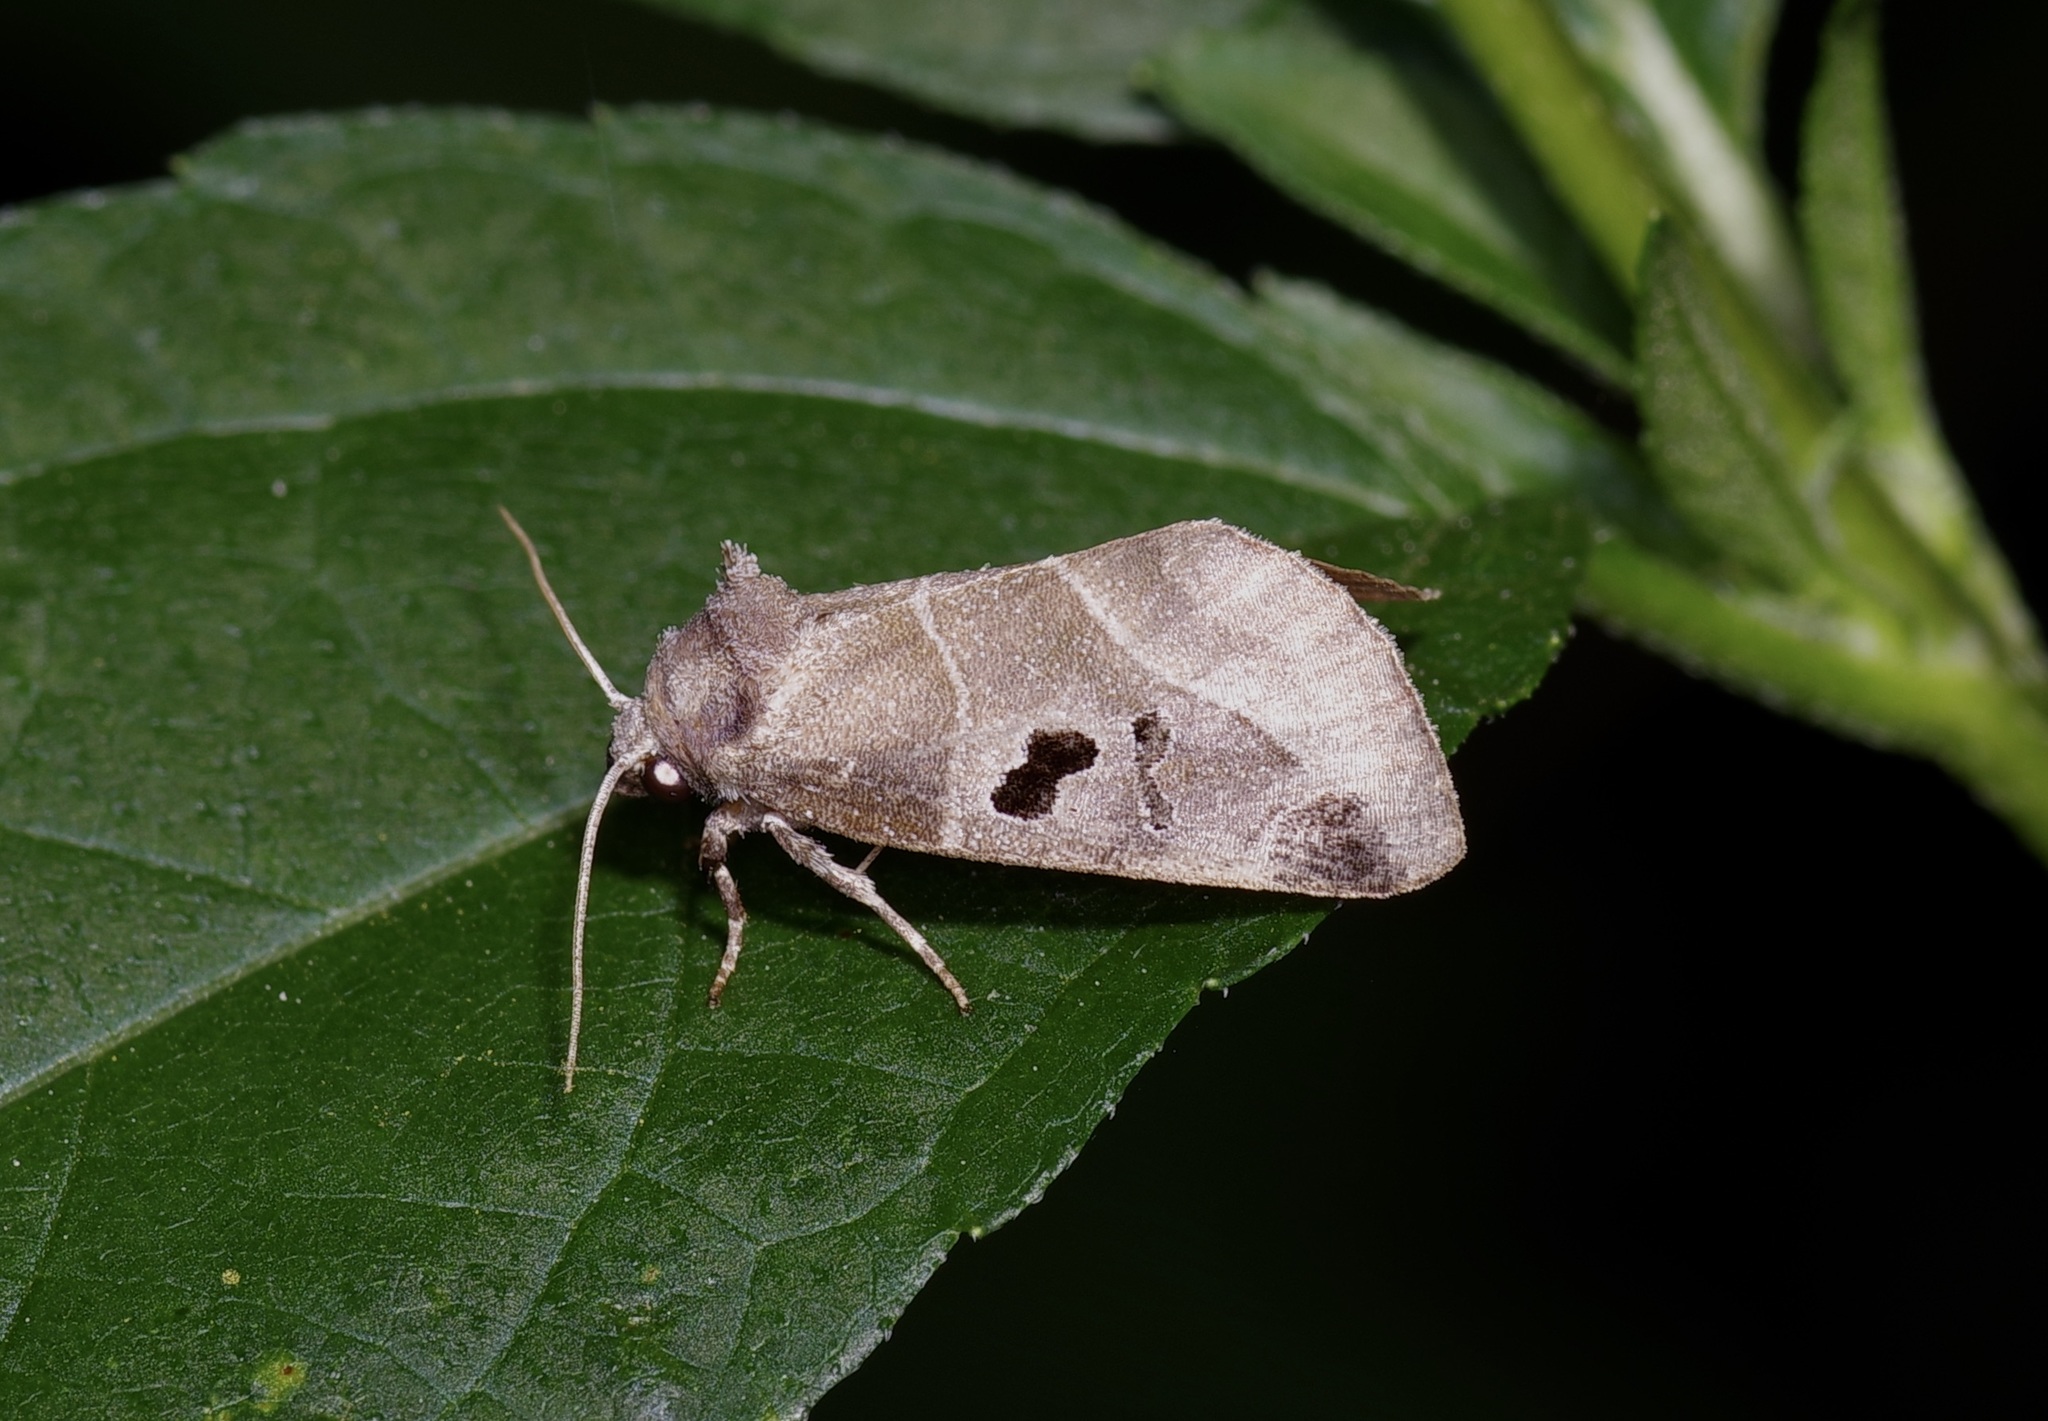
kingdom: Animalia
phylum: Arthropoda
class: Insecta
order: Lepidoptera
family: Noctuidae
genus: Plagiomimicus
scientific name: Plagiomimicus pityochromus
